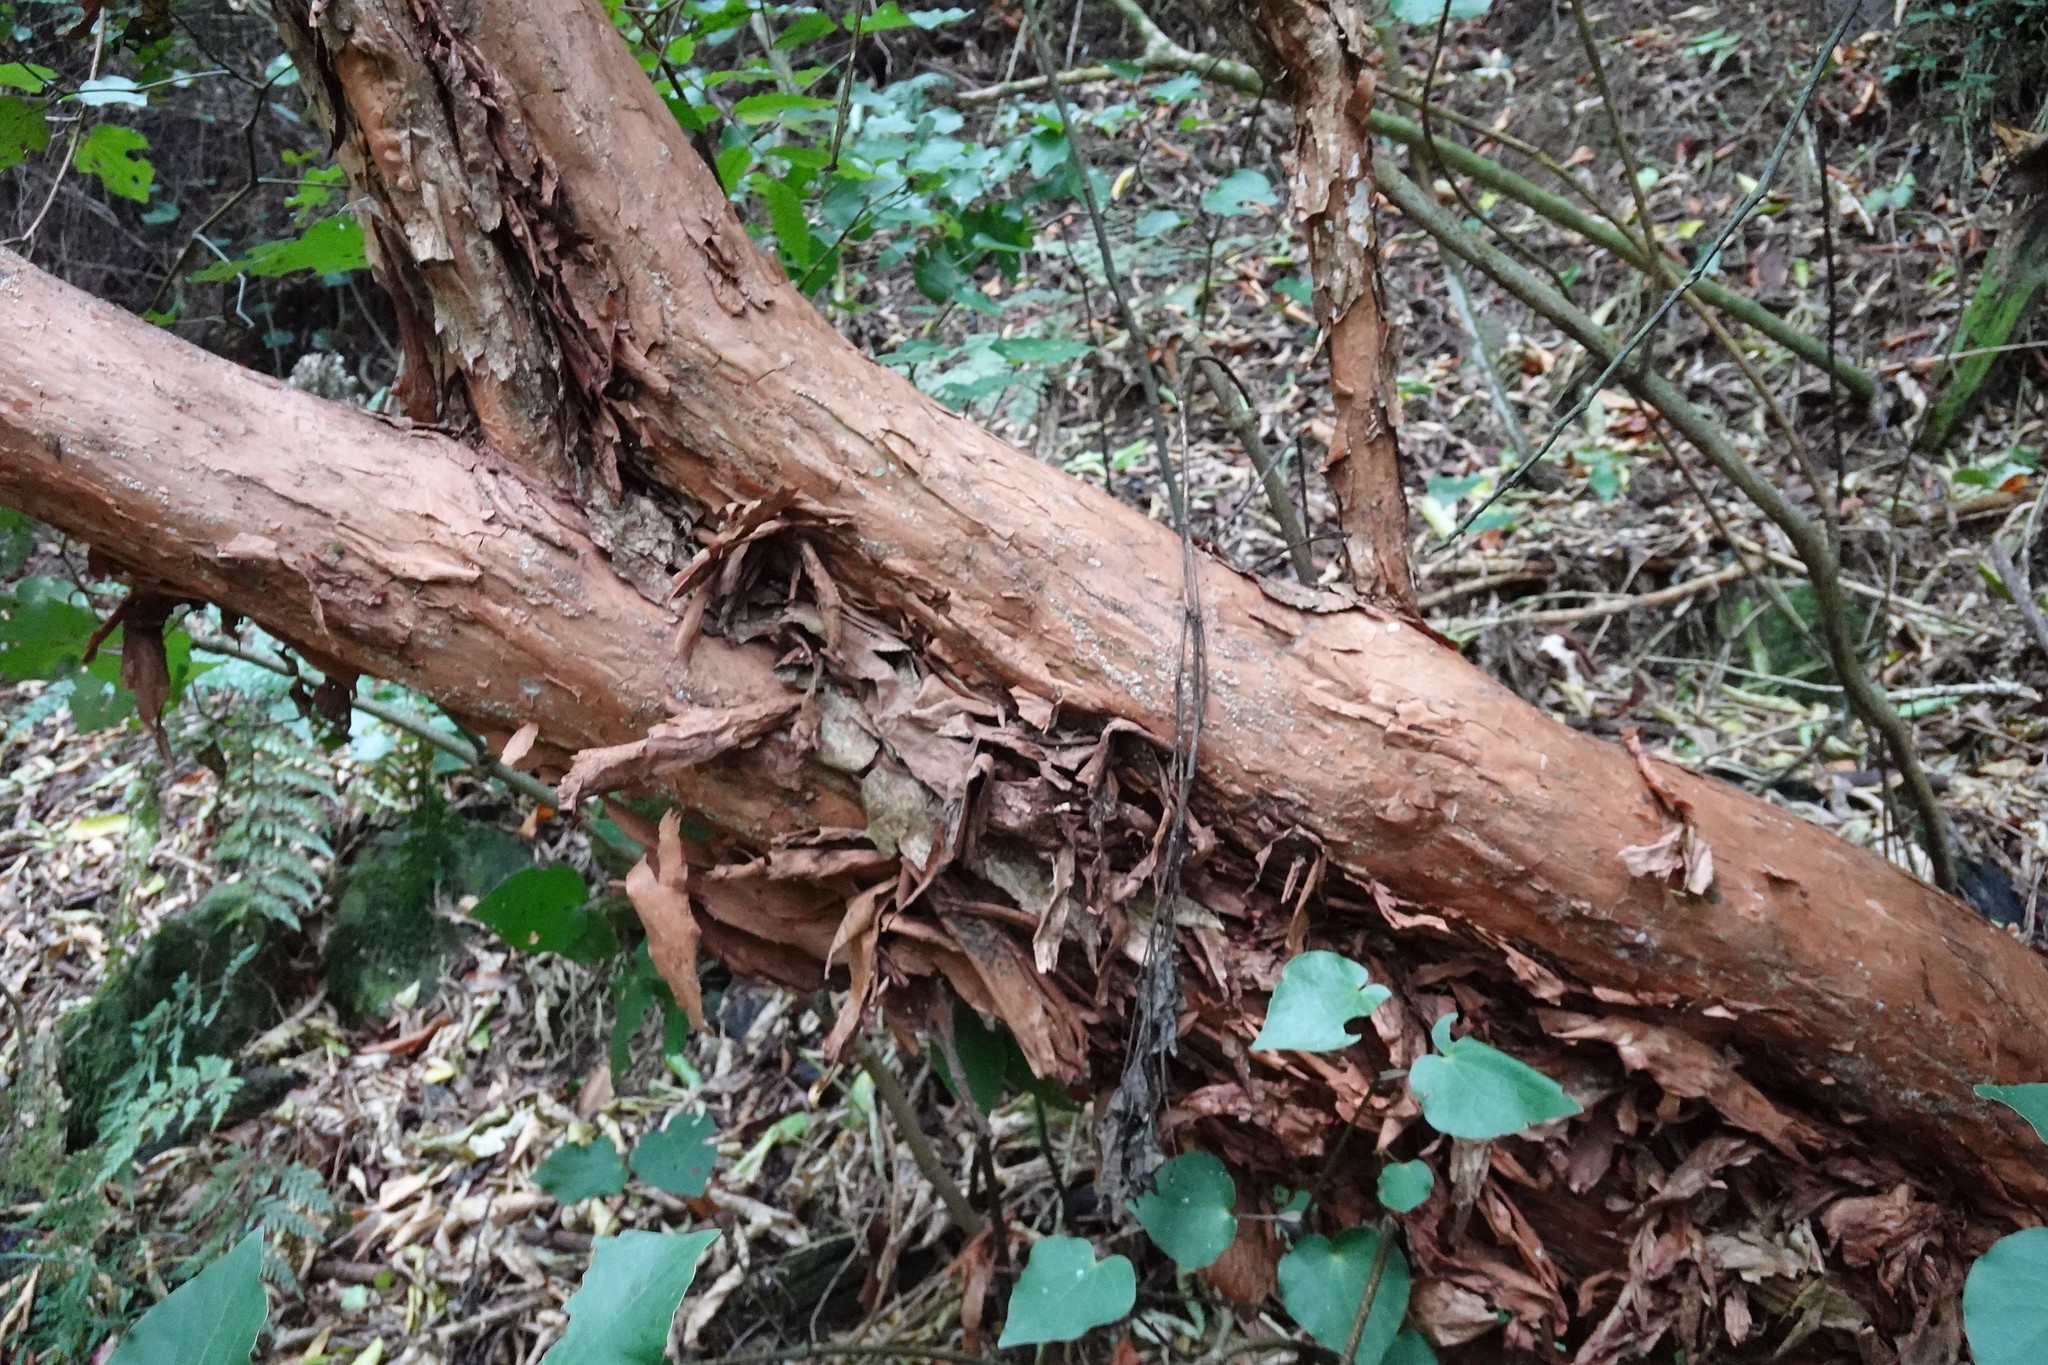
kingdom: Plantae
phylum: Tracheophyta
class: Magnoliopsida
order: Myrtales
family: Onagraceae
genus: Fuchsia
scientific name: Fuchsia excorticata
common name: Tree fuchsia
